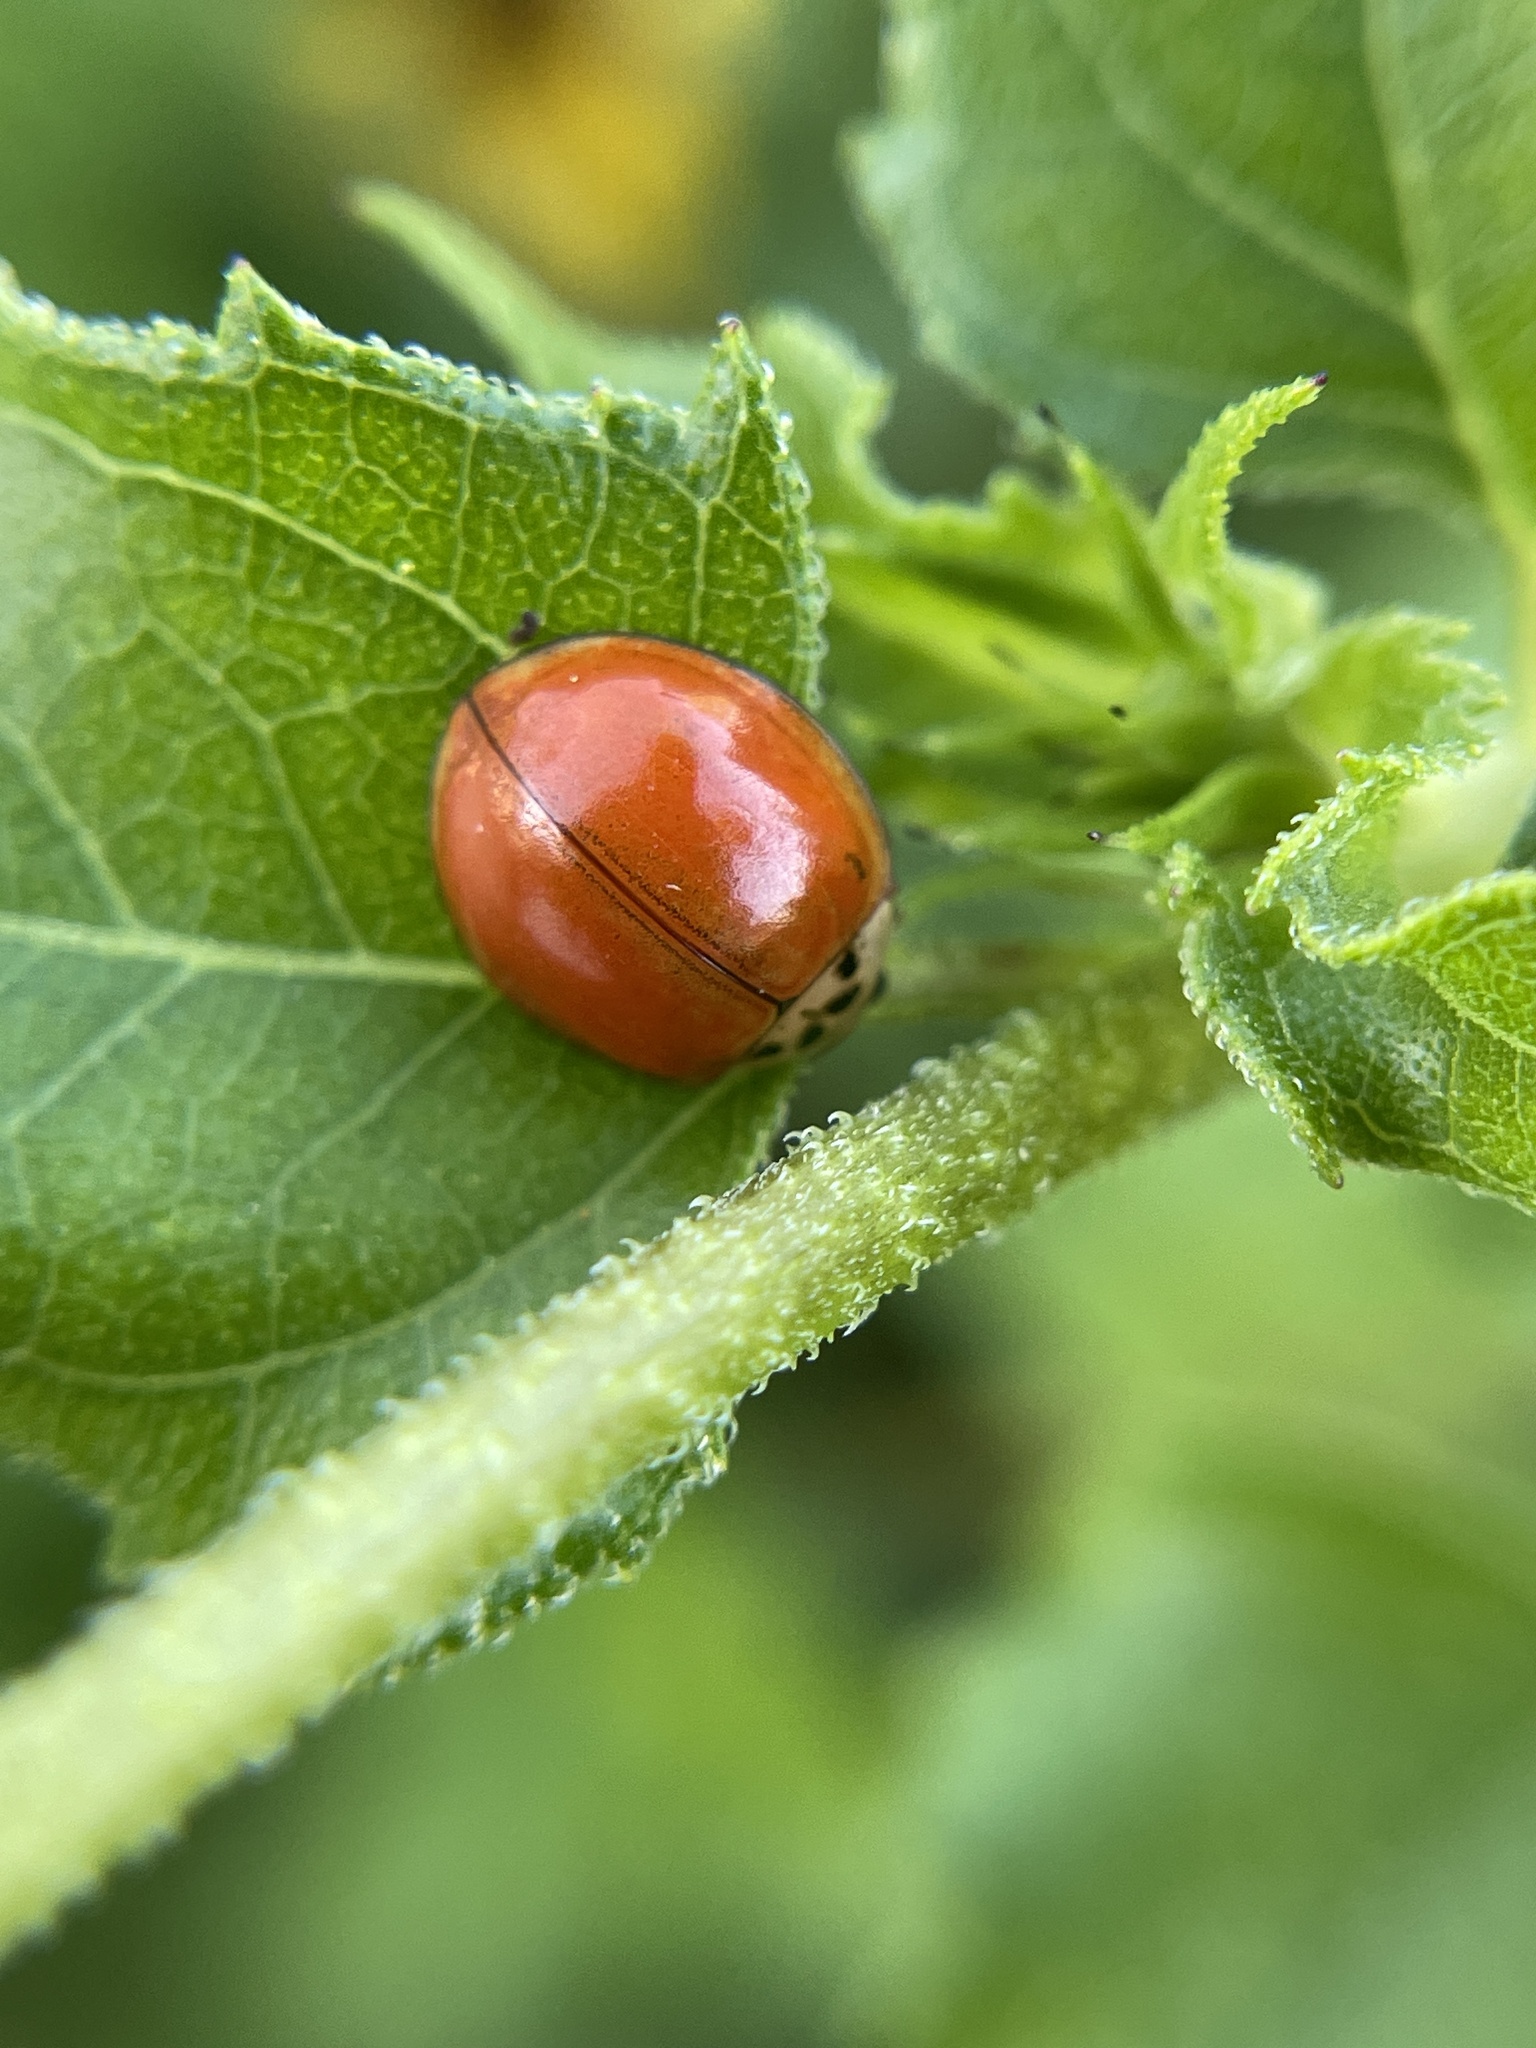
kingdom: Animalia
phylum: Arthropoda
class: Insecta
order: Coleoptera
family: Coccinellidae
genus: Harmonia
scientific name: Harmonia axyridis
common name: Harlequin ladybird
